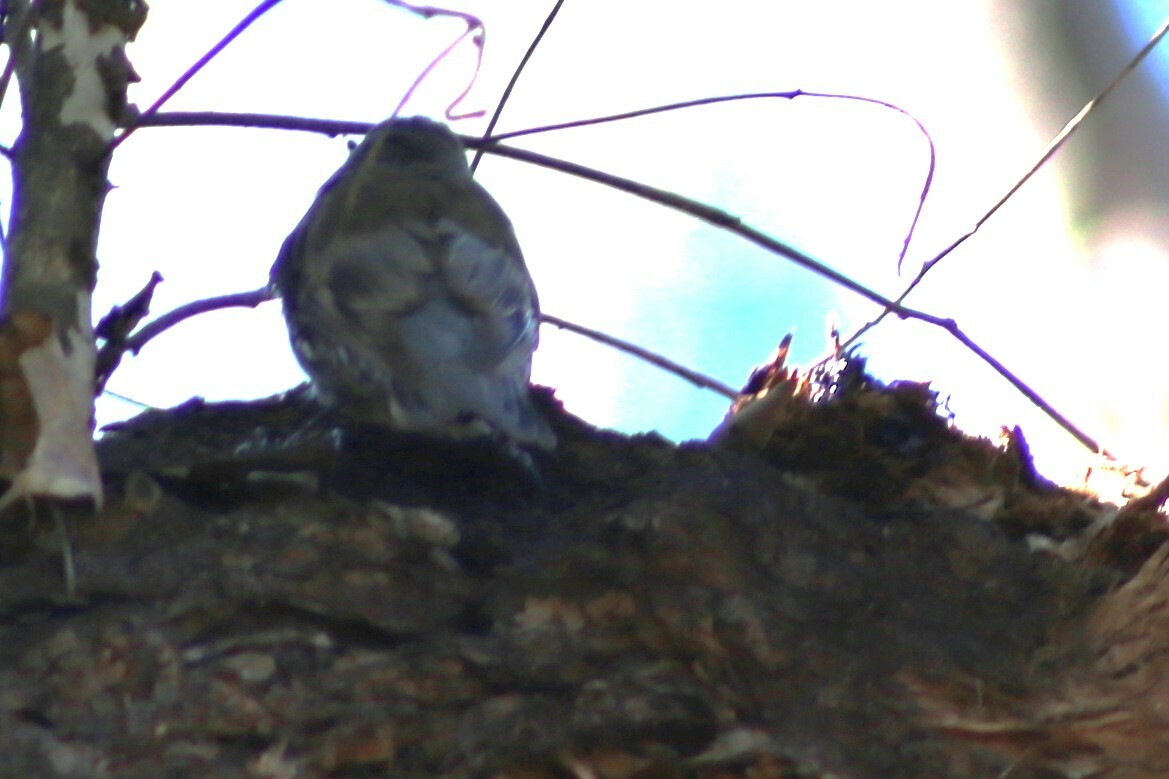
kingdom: Animalia
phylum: Chordata
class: Aves
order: Passeriformes
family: Climacteridae
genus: Cormobates
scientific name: Cormobates leucophaea
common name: White-throated treecreeper
